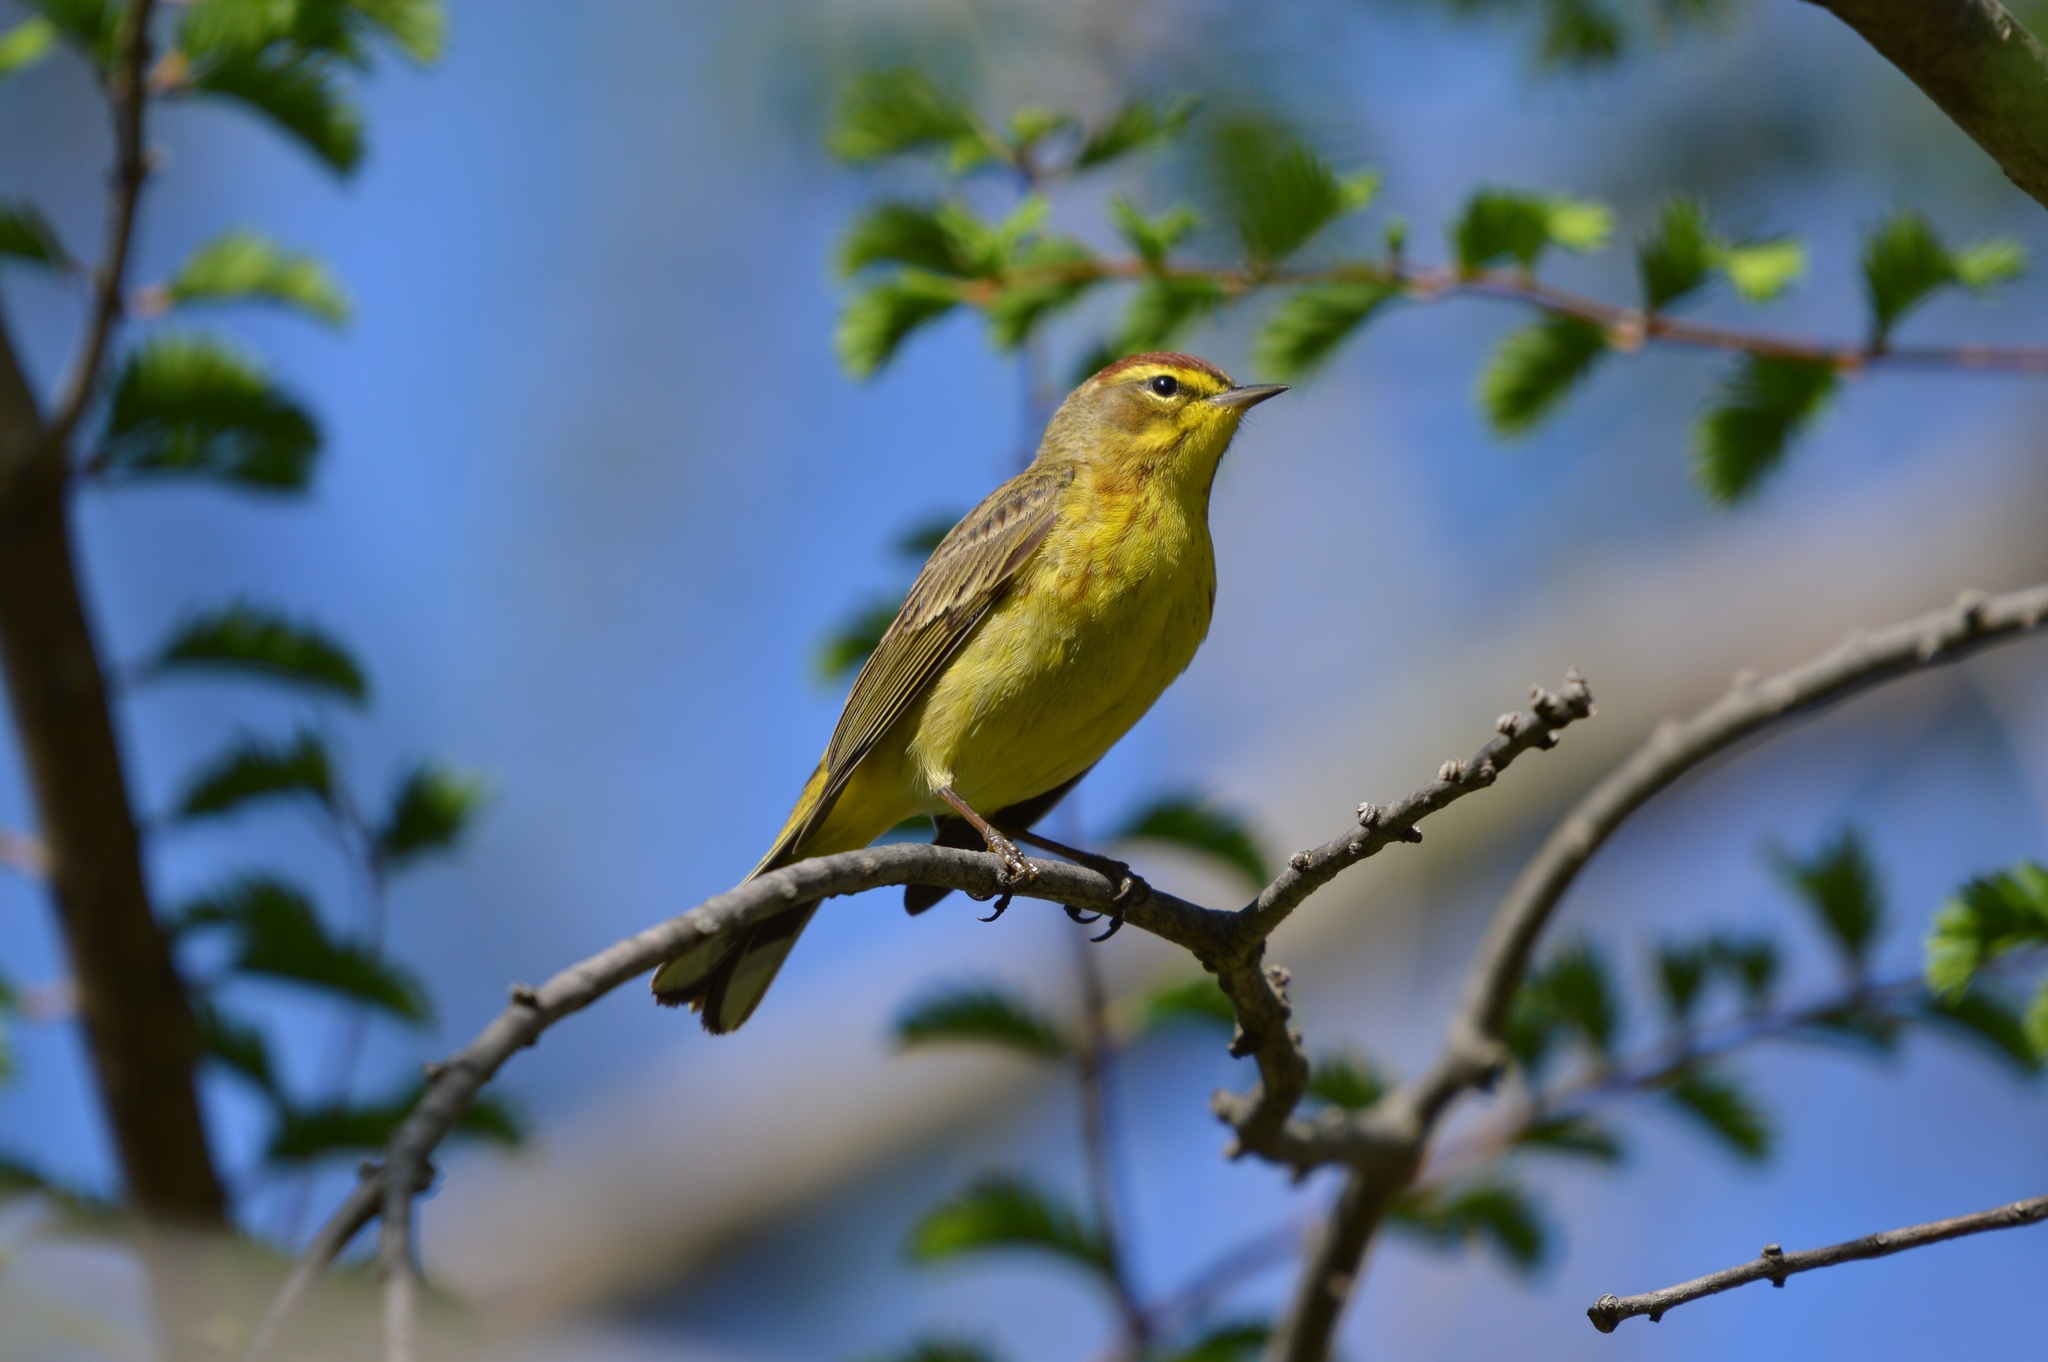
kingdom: Animalia
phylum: Chordata
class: Aves
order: Passeriformes
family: Parulidae
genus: Setophaga
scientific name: Setophaga palmarum
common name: Palm warbler
